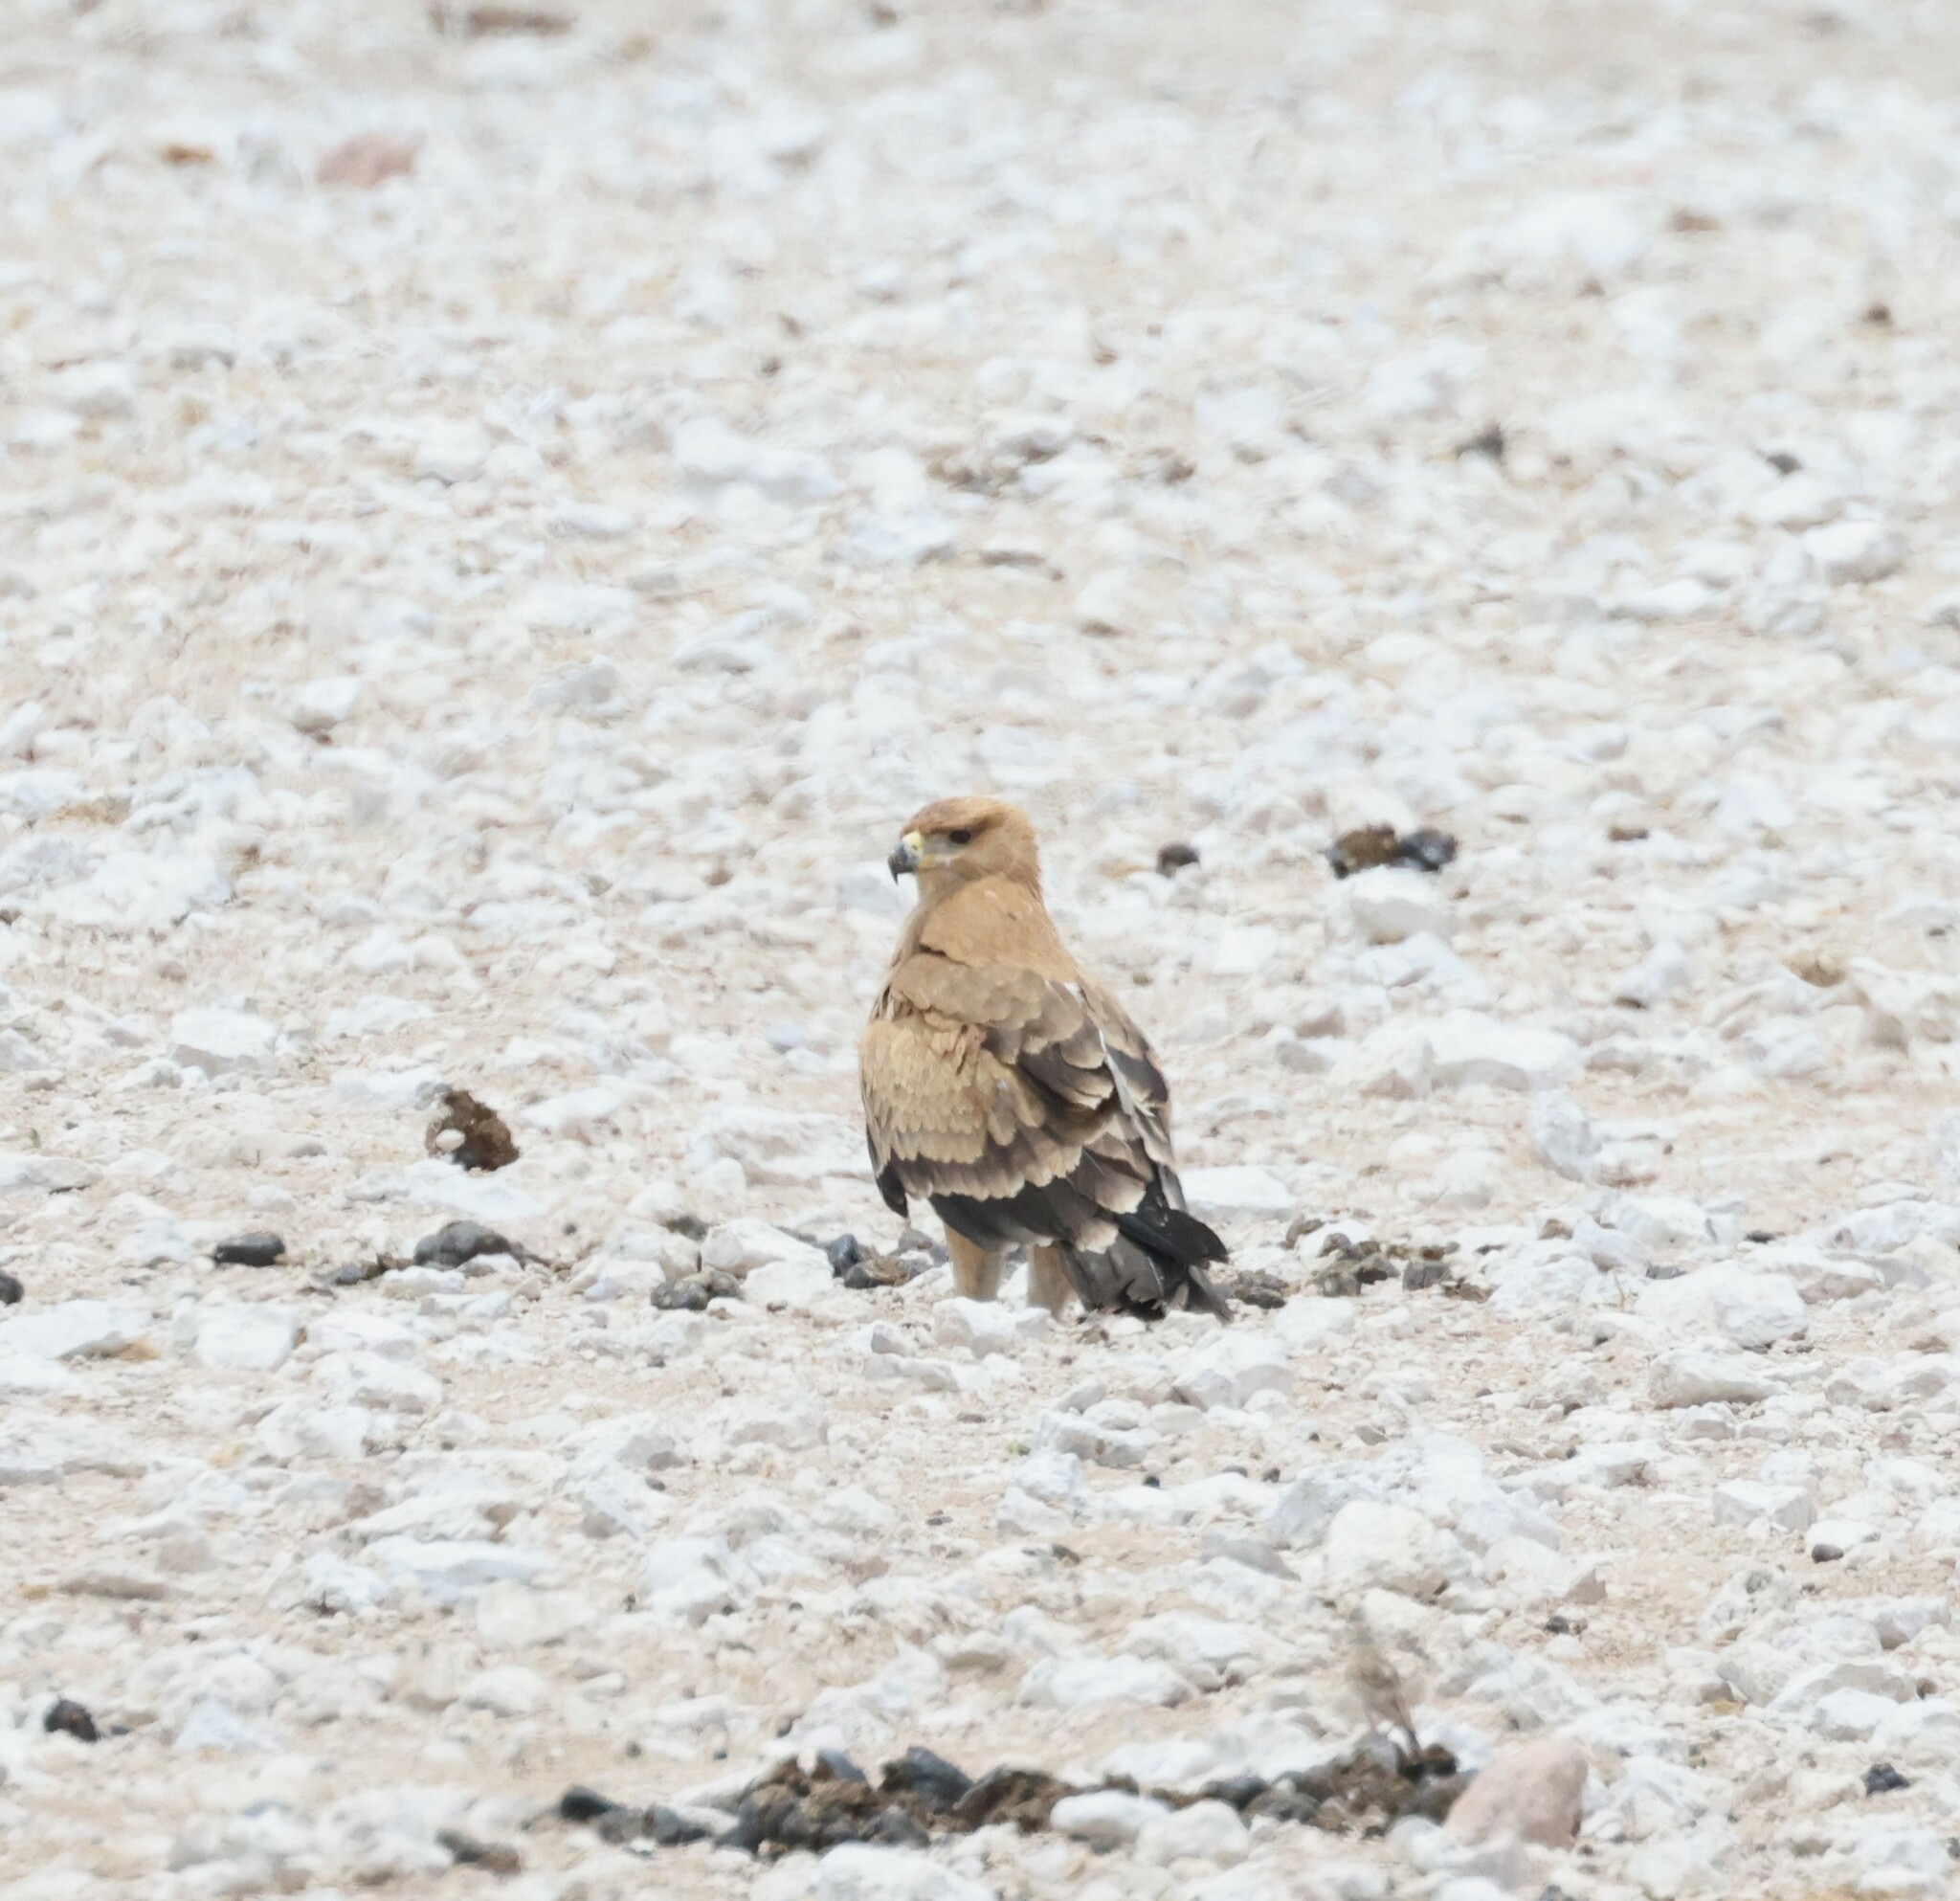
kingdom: Animalia
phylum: Chordata
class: Aves
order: Accipitriformes
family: Accipitridae
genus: Aquila
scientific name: Aquila rapax
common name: Tawny eagle
